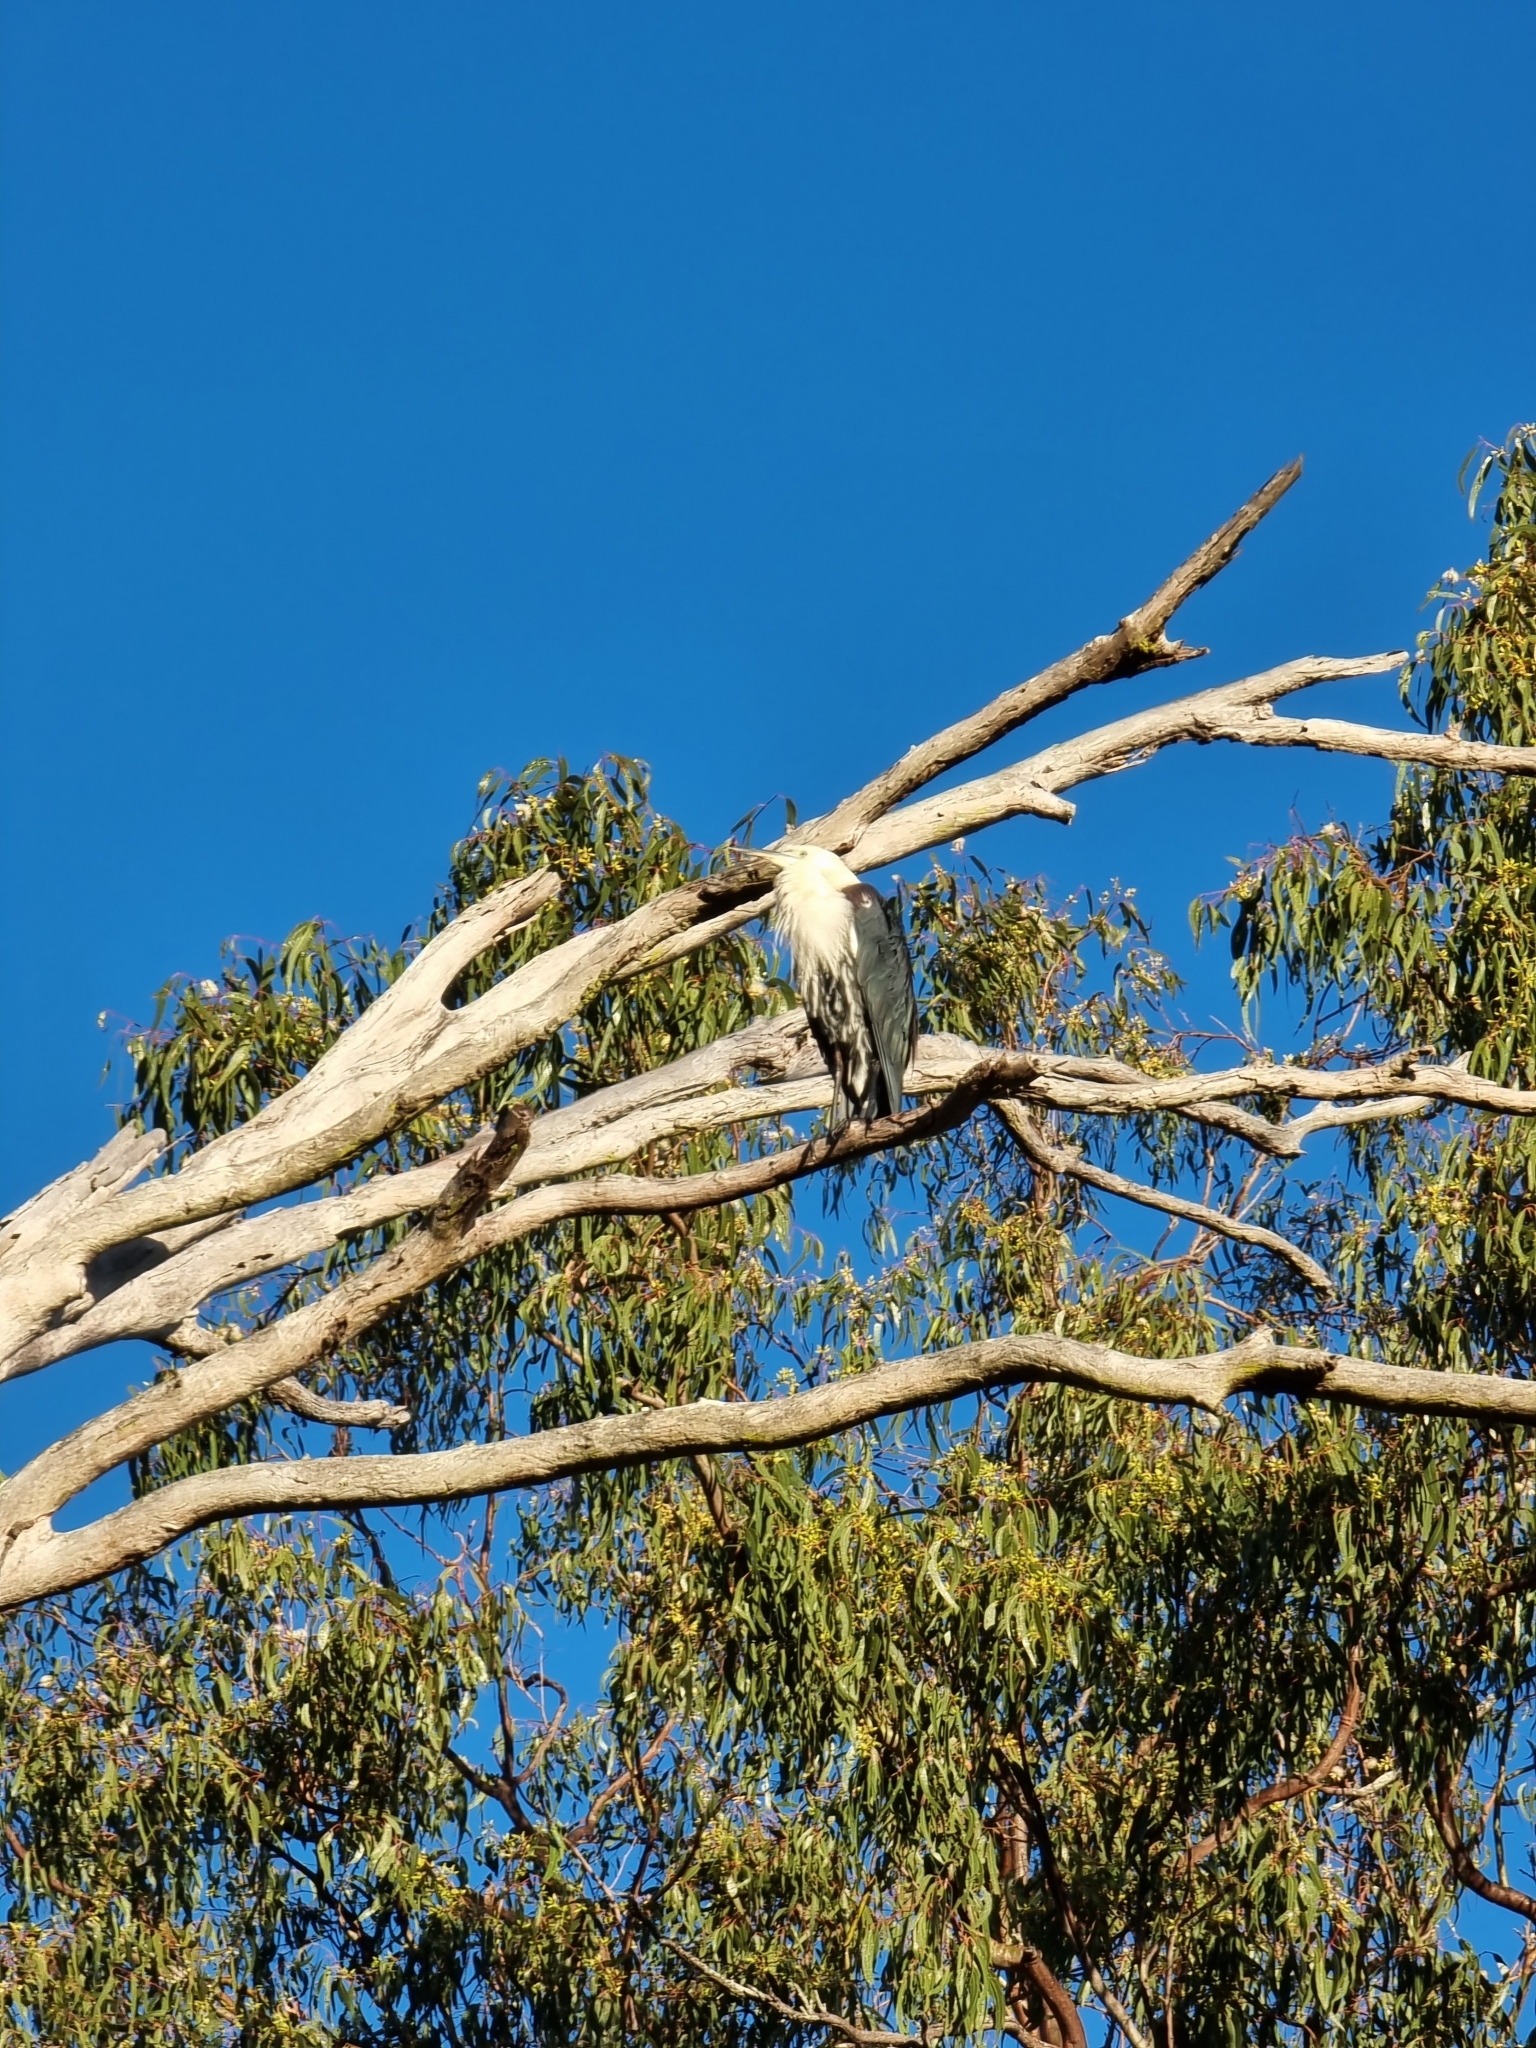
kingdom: Animalia
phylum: Chordata
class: Aves
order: Pelecaniformes
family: Ardeidae
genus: Ardea
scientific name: Ardea pacifica
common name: White-necked heron
